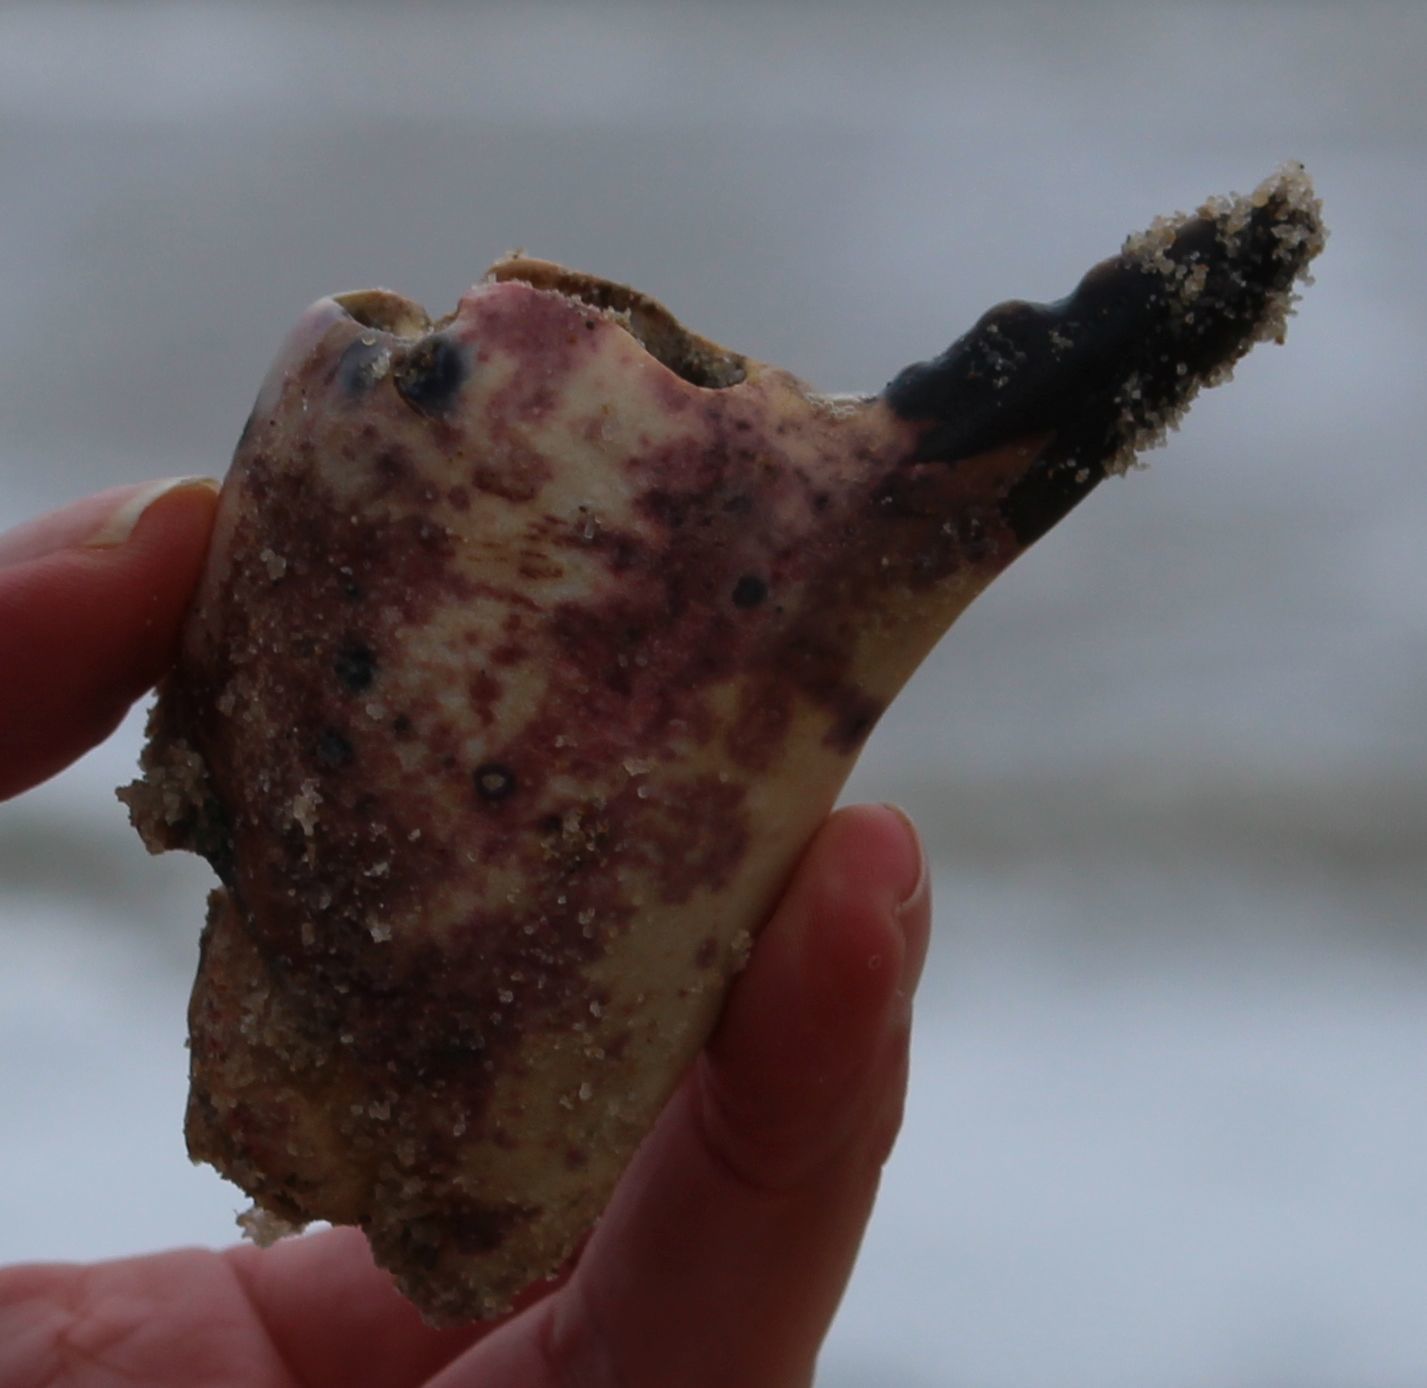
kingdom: Animalia
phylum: Arthropoda
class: Malacostraca
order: Decapoda
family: Cancridae
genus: Cancer
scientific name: Cancer pagurus
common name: Edible crab
